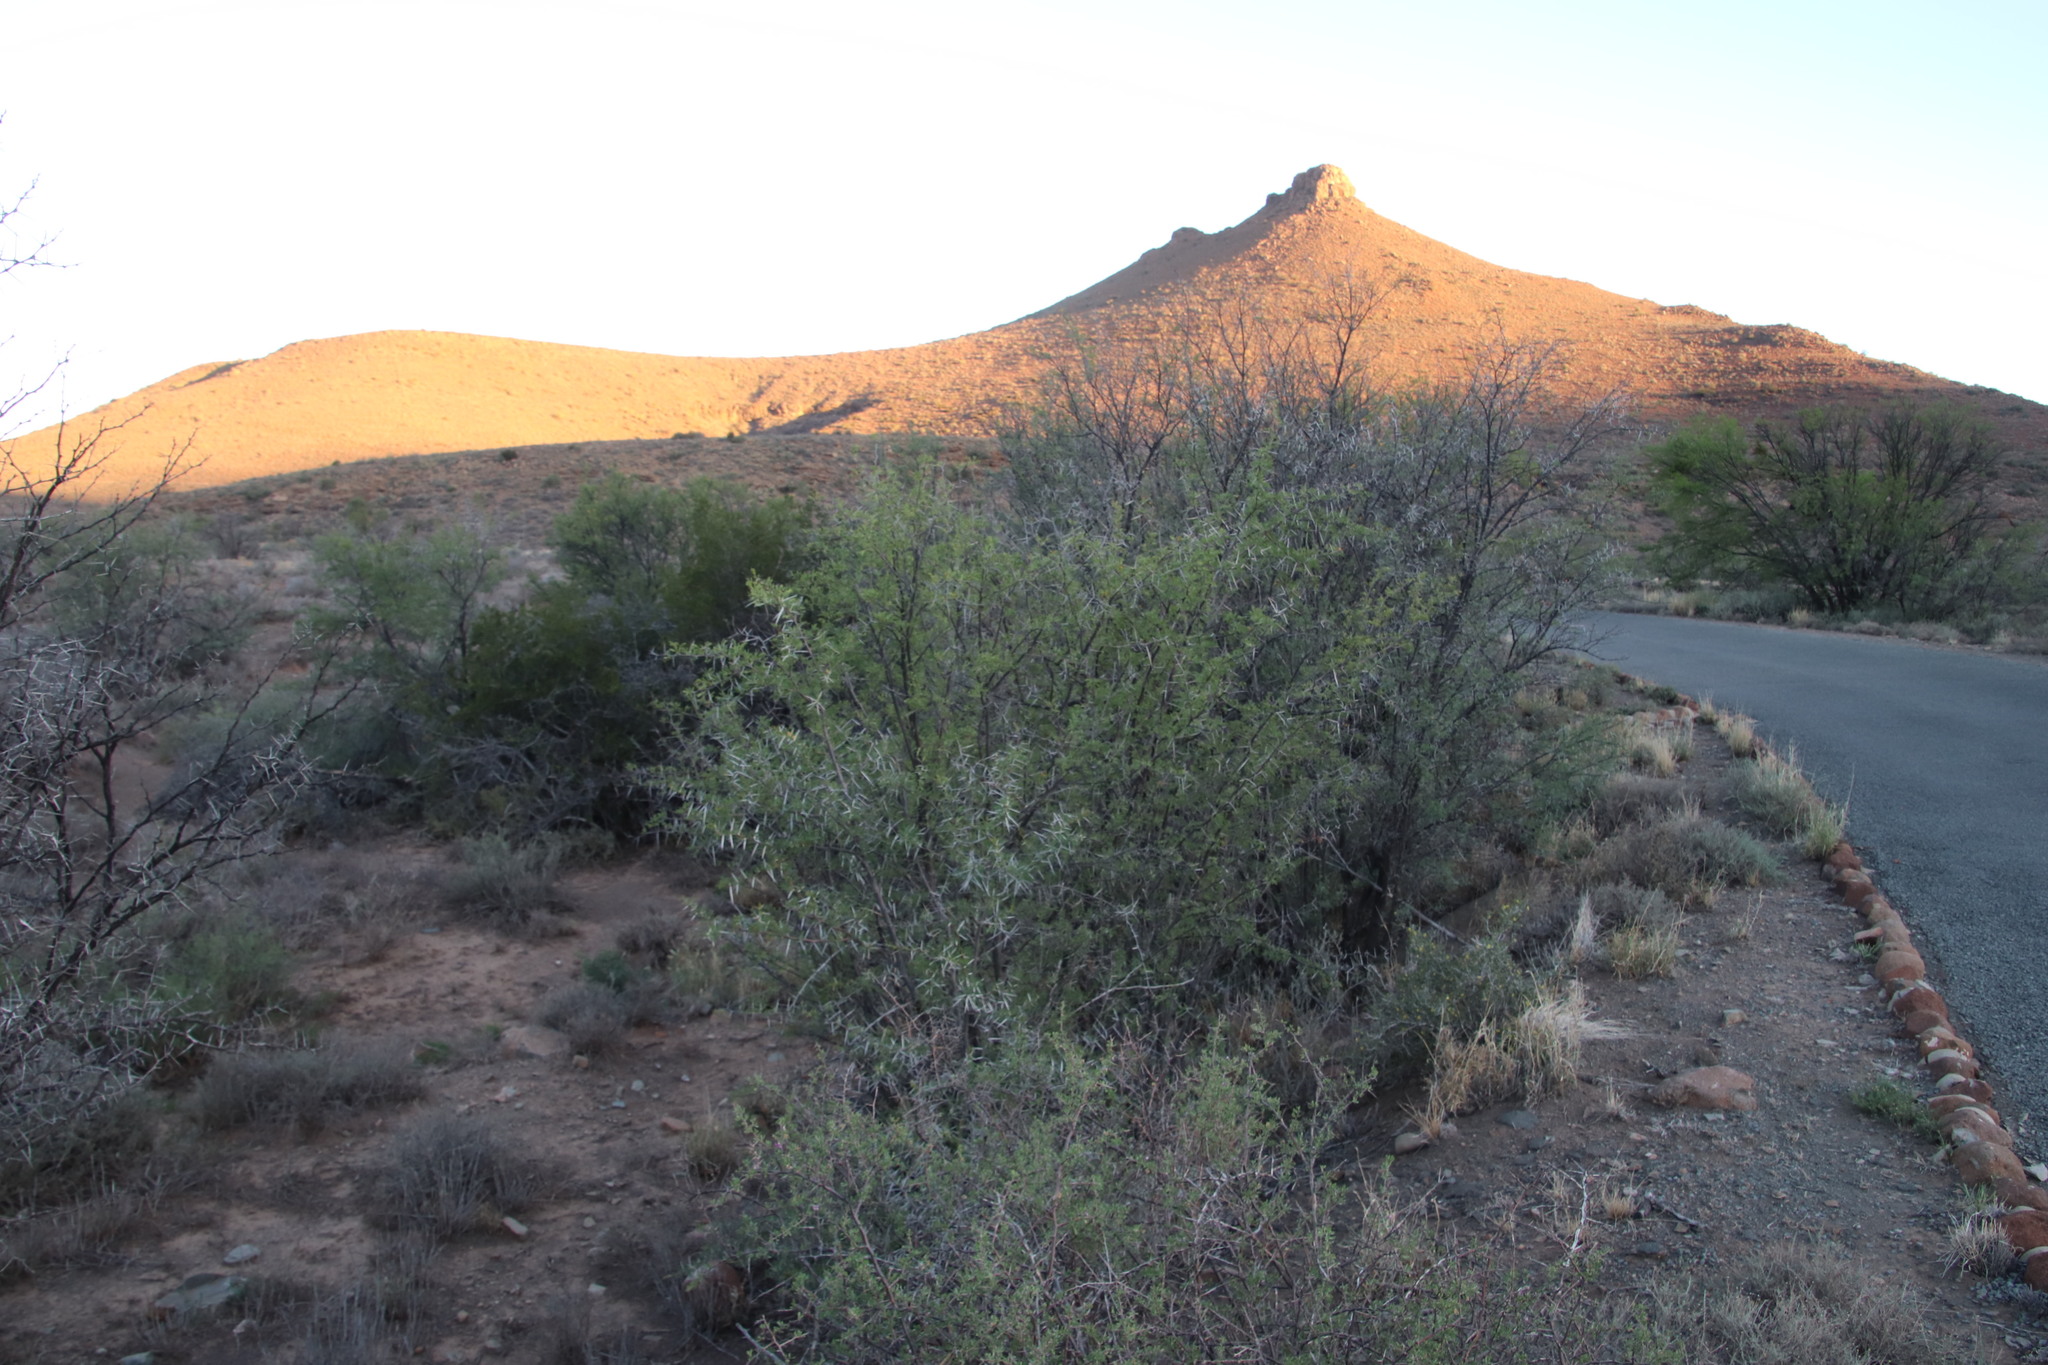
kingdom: Plantae
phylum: Tracheophyta
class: Magnoliopsida
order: Fabales
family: Fabaceae
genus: Vachellia
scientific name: Vachellia karroo
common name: Sweet thorn
